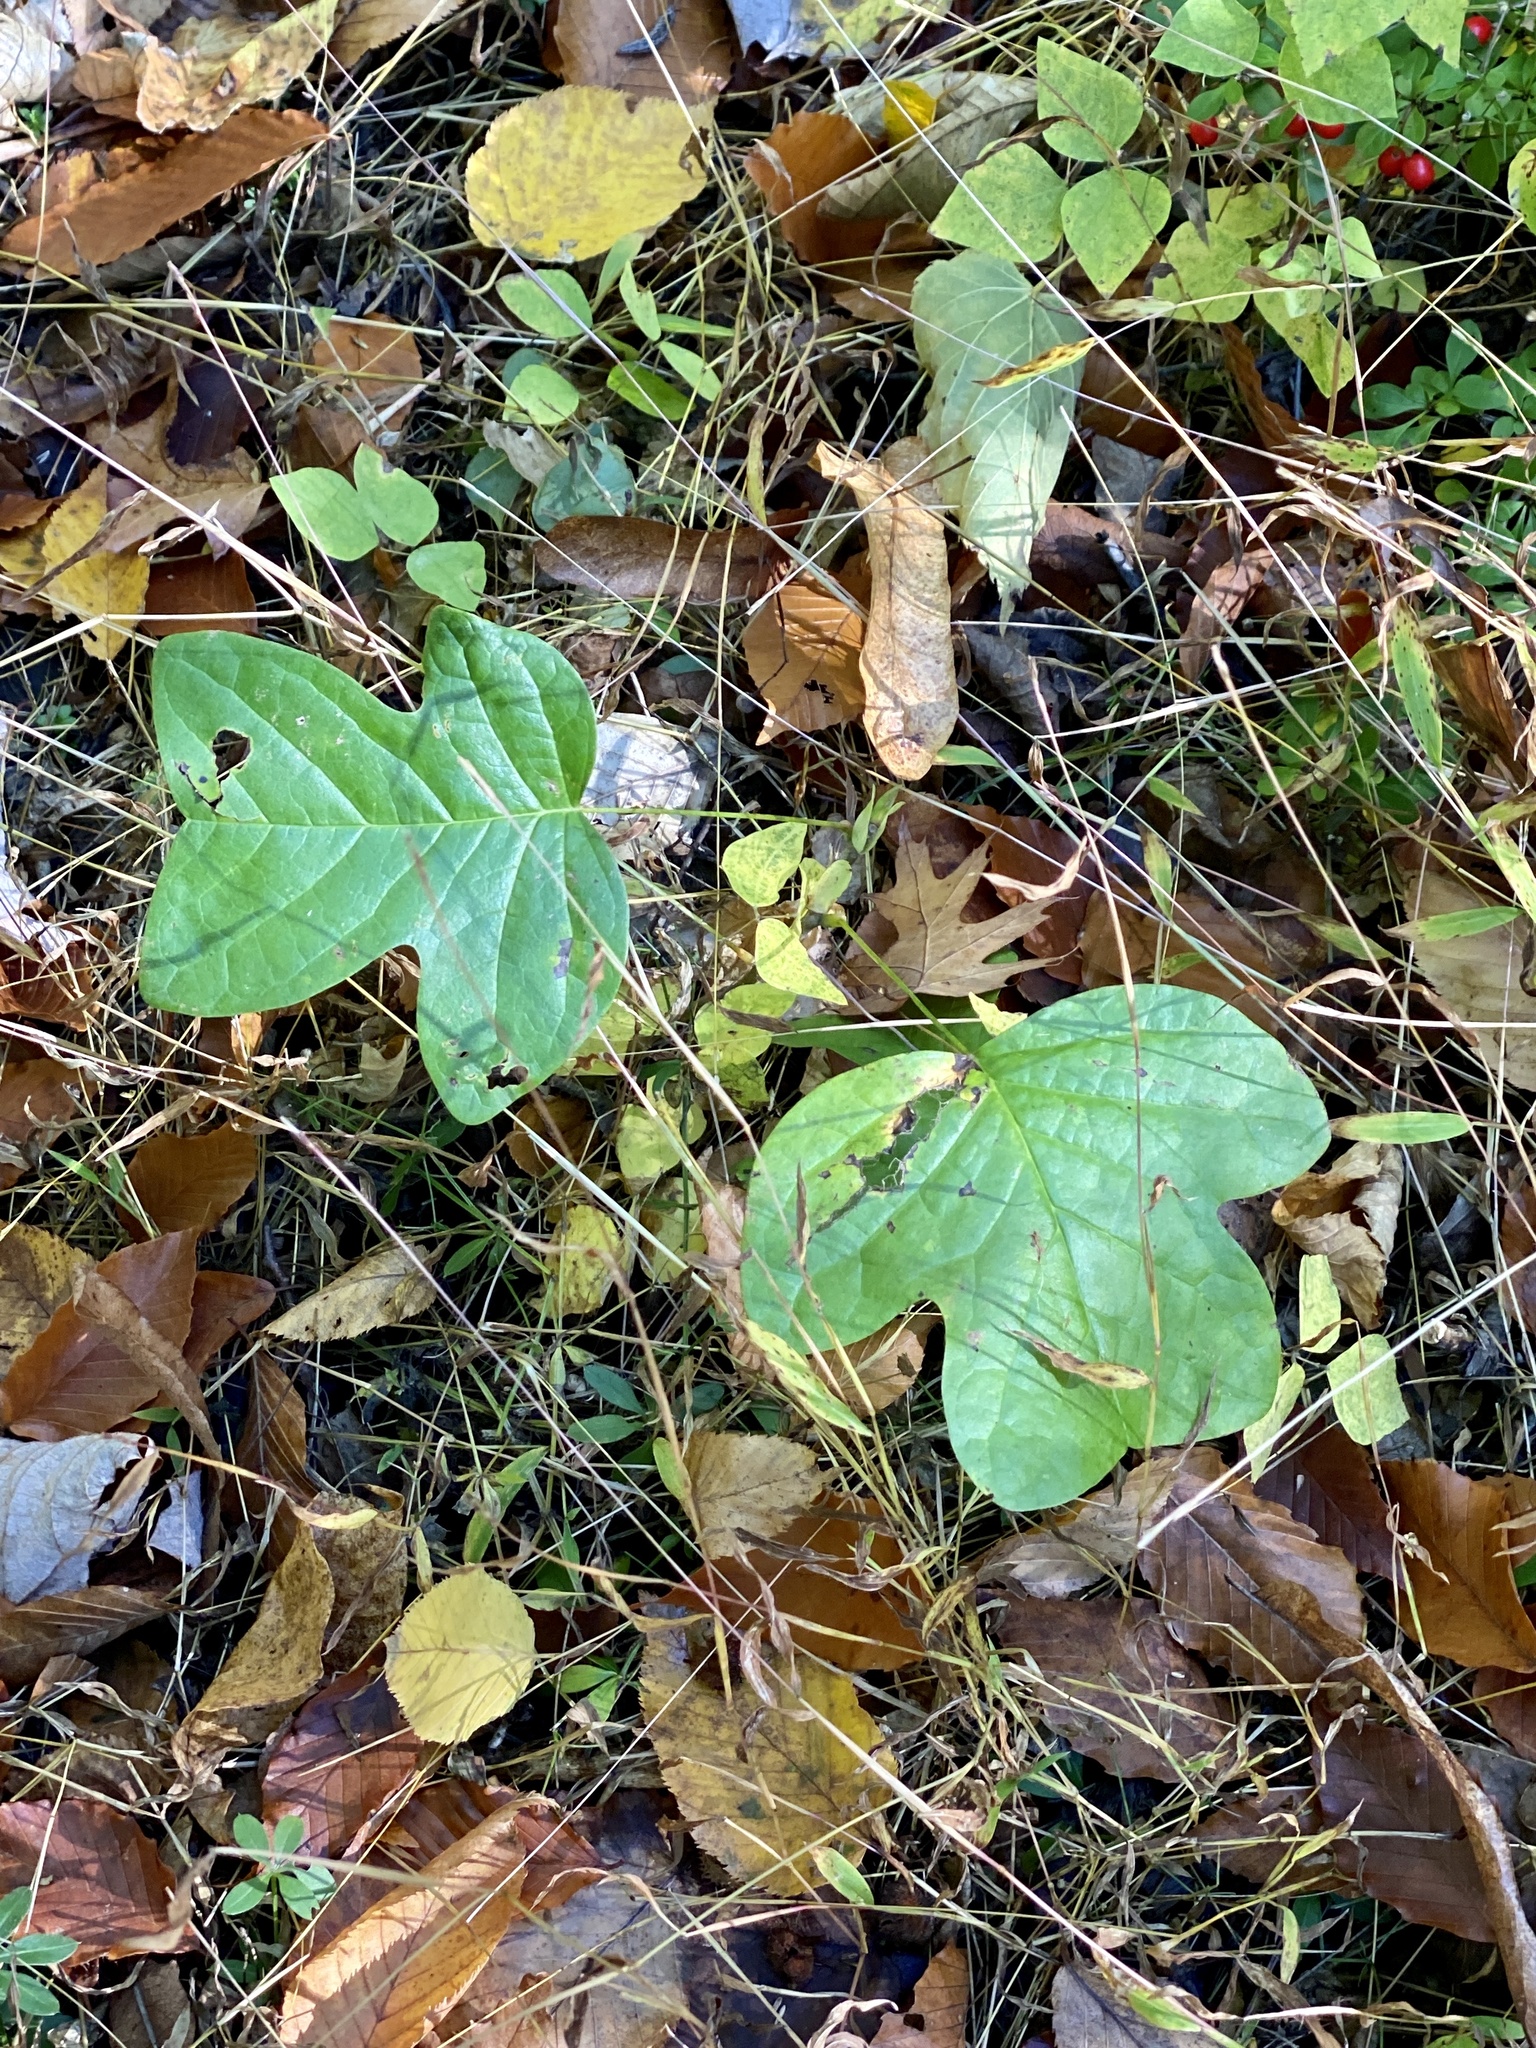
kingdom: Plantae
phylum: Tracheophyta
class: Magnoliopsida
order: Magnoliales
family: Magnoliaceae
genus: Liriodendron
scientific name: Liriodendron tulipifera
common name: Tulip tree
